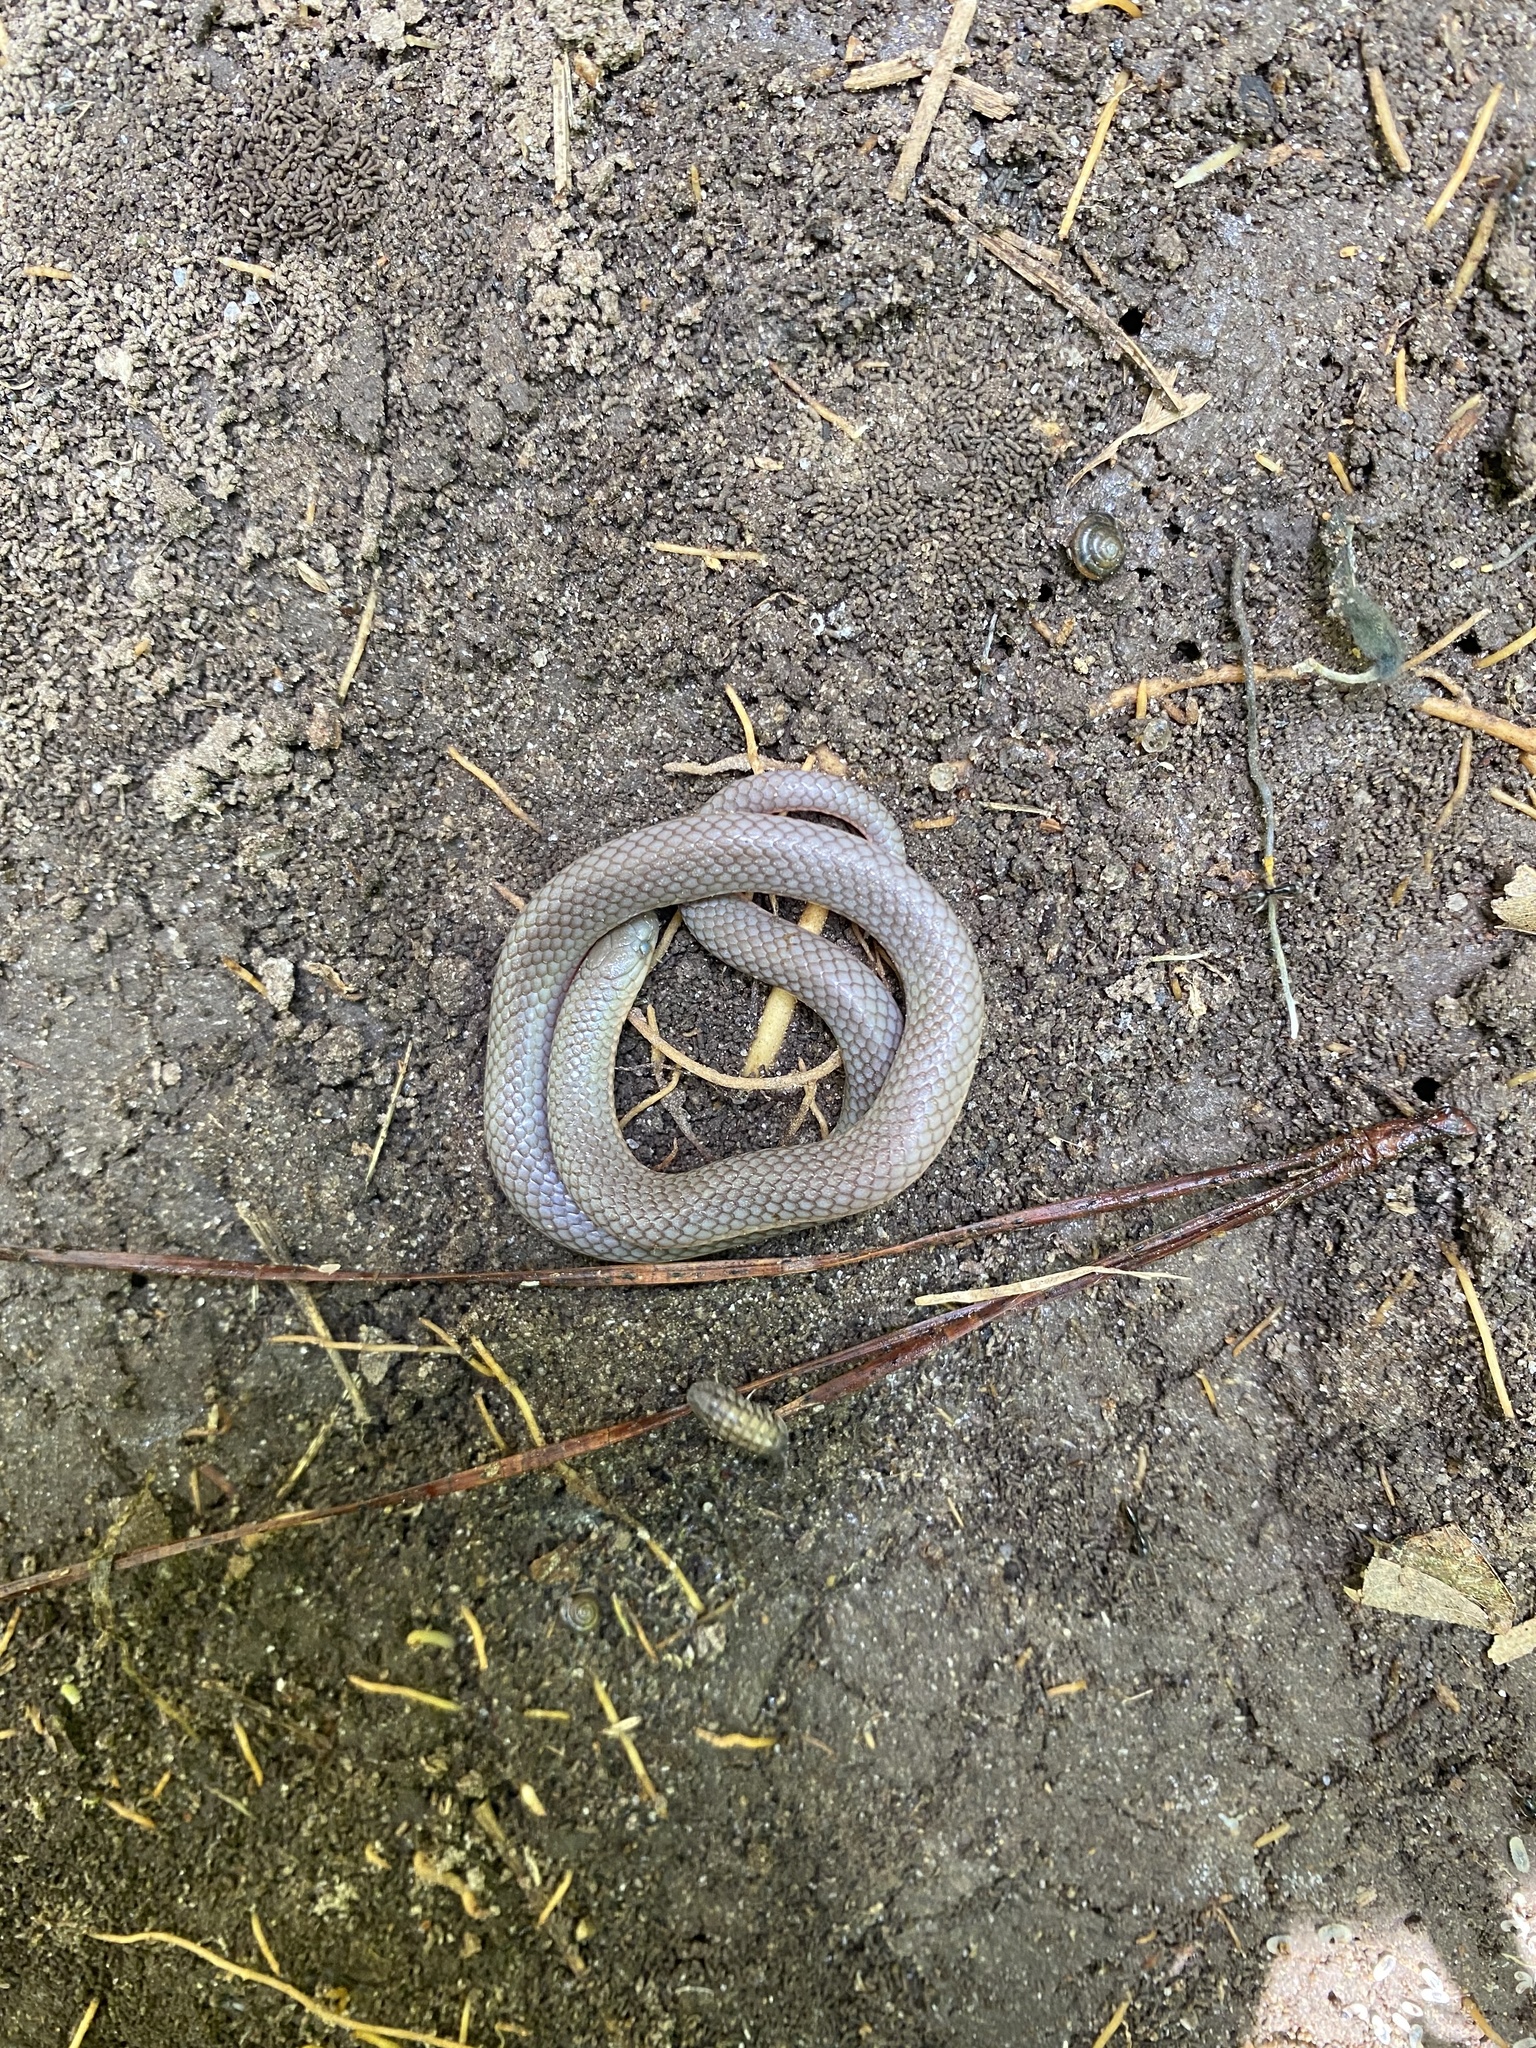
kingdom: Animalia
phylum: Chordata
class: Squamata
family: Colubridae
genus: Carphophis
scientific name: Carphophis amoenus
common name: Eastern worm snake
